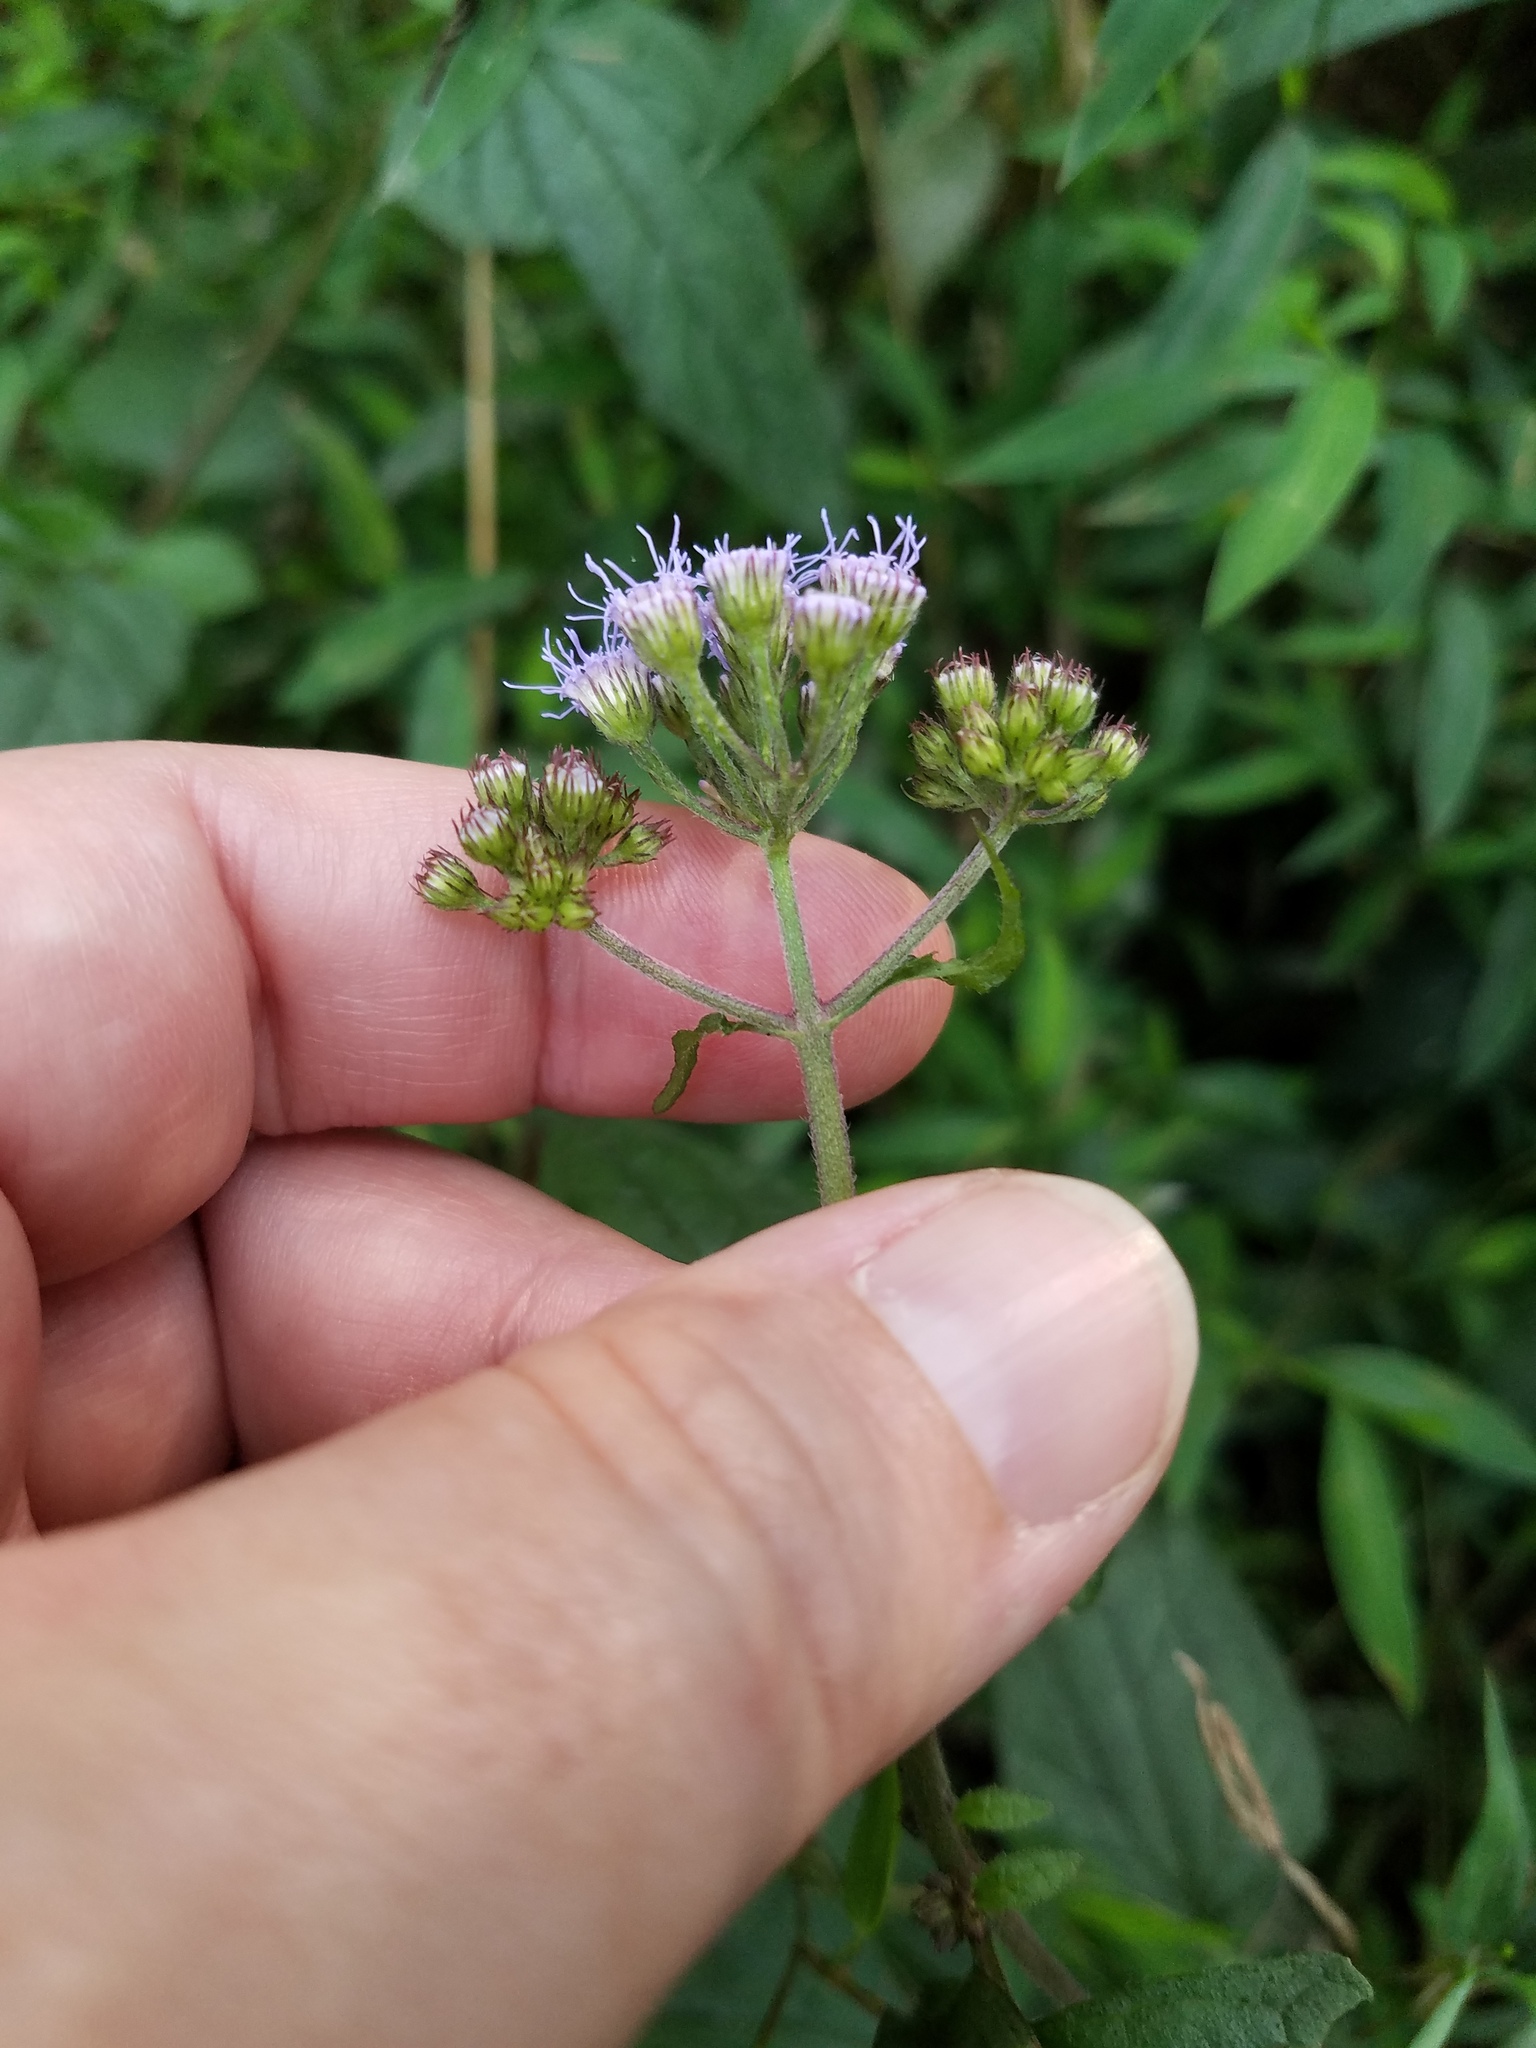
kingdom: Plantae
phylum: Tracheophyta
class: Magnoliopsida
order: Asterales
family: Asteraceae
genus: Conoclinium
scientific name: Conoclinium coelestinum
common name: Blue mistflower
